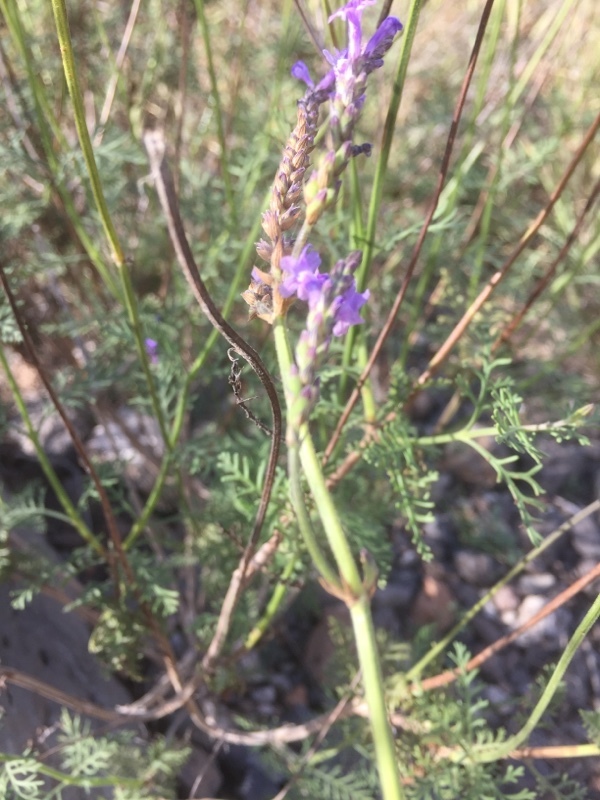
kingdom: Plantae
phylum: Tracheophyta
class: Magnoliopsida
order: Lamiales
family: Lamiaceae
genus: Lavandula
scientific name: Lavandula canariensis
